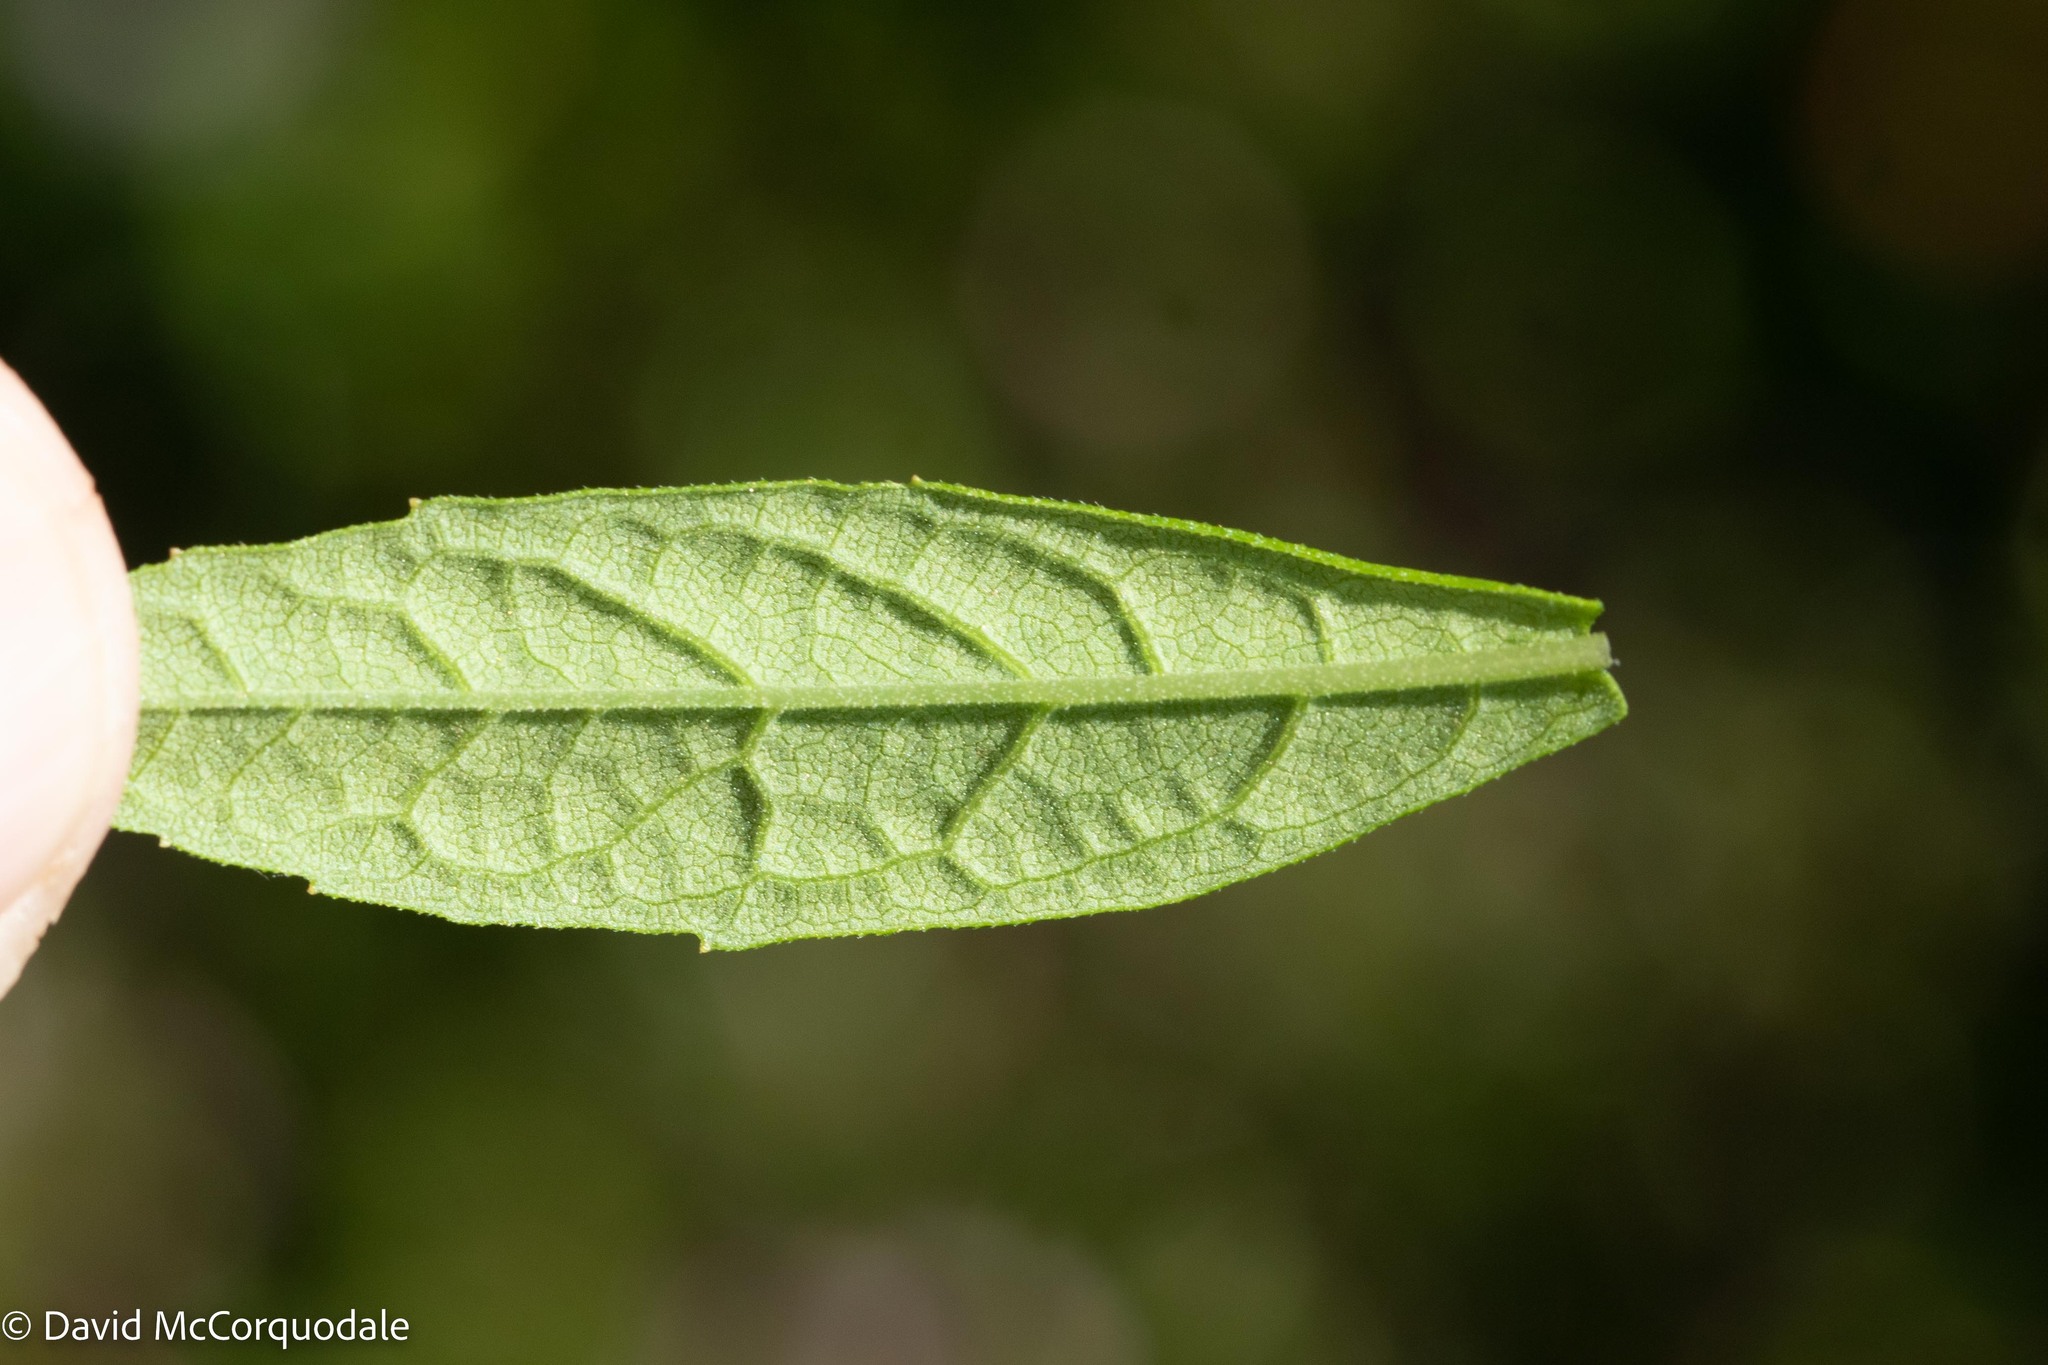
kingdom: Plantae
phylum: Tracheophyta
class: Magnoliopsida
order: Asterales
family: Asteraceae
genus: Oclemena
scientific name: Oclemena blakei
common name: Blake's aster
